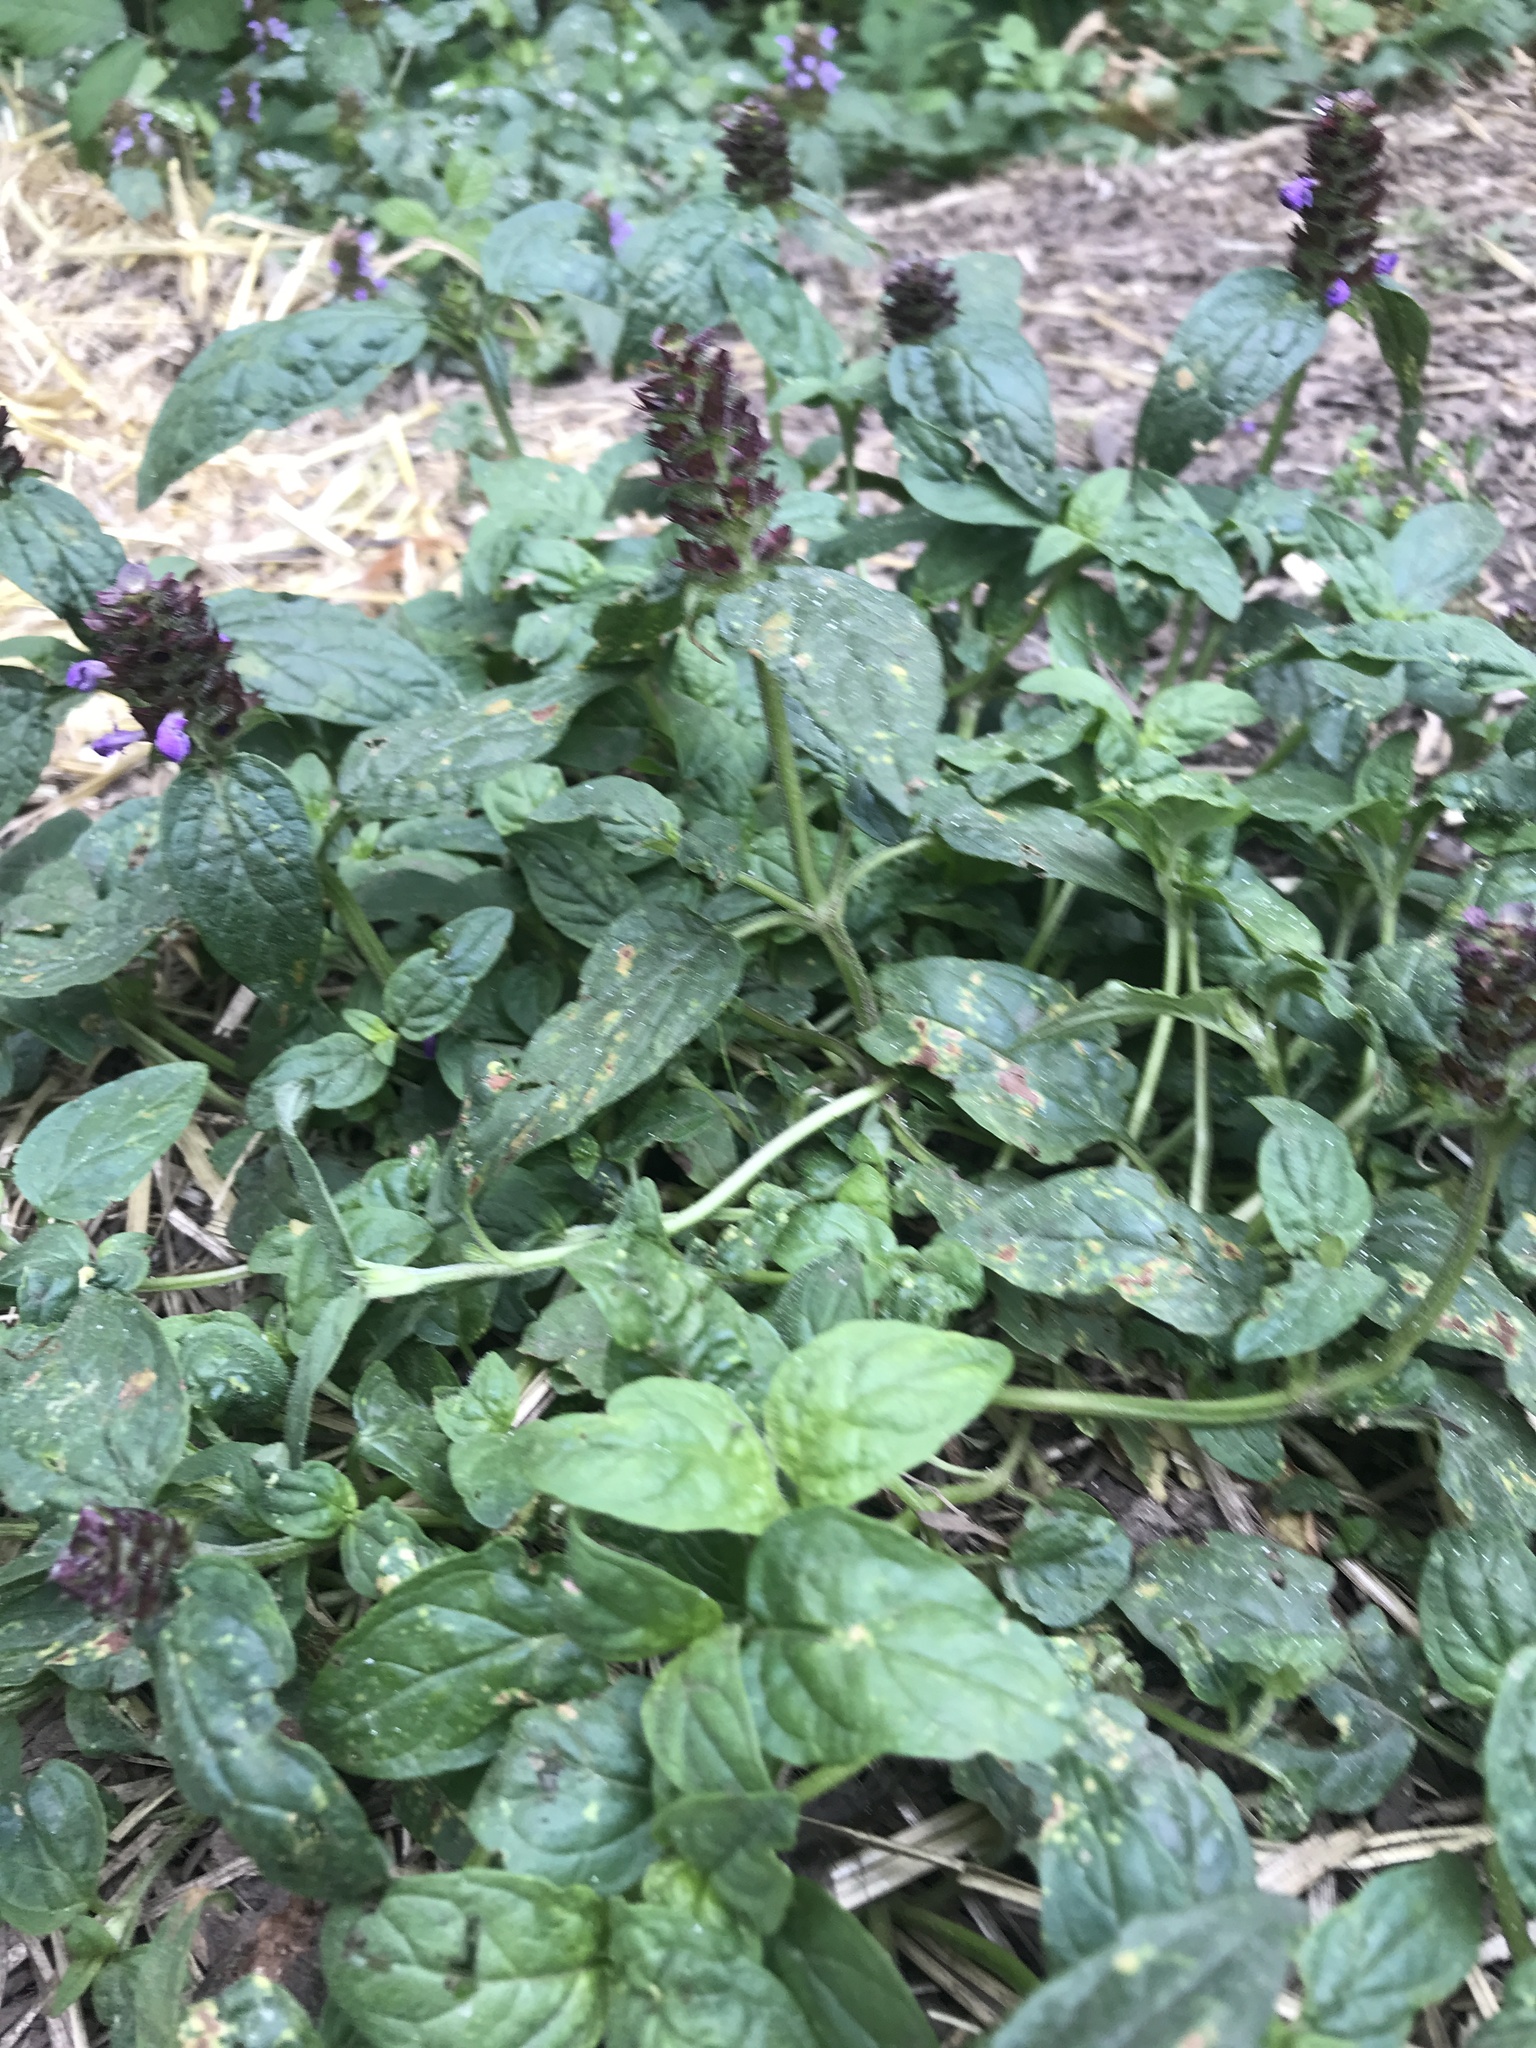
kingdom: Plantae
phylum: Tracheophyta
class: Magnoliopsida
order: Lamiales
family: Lamiaceae
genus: Prunella
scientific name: Prunella vulgaris
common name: Heal-all
